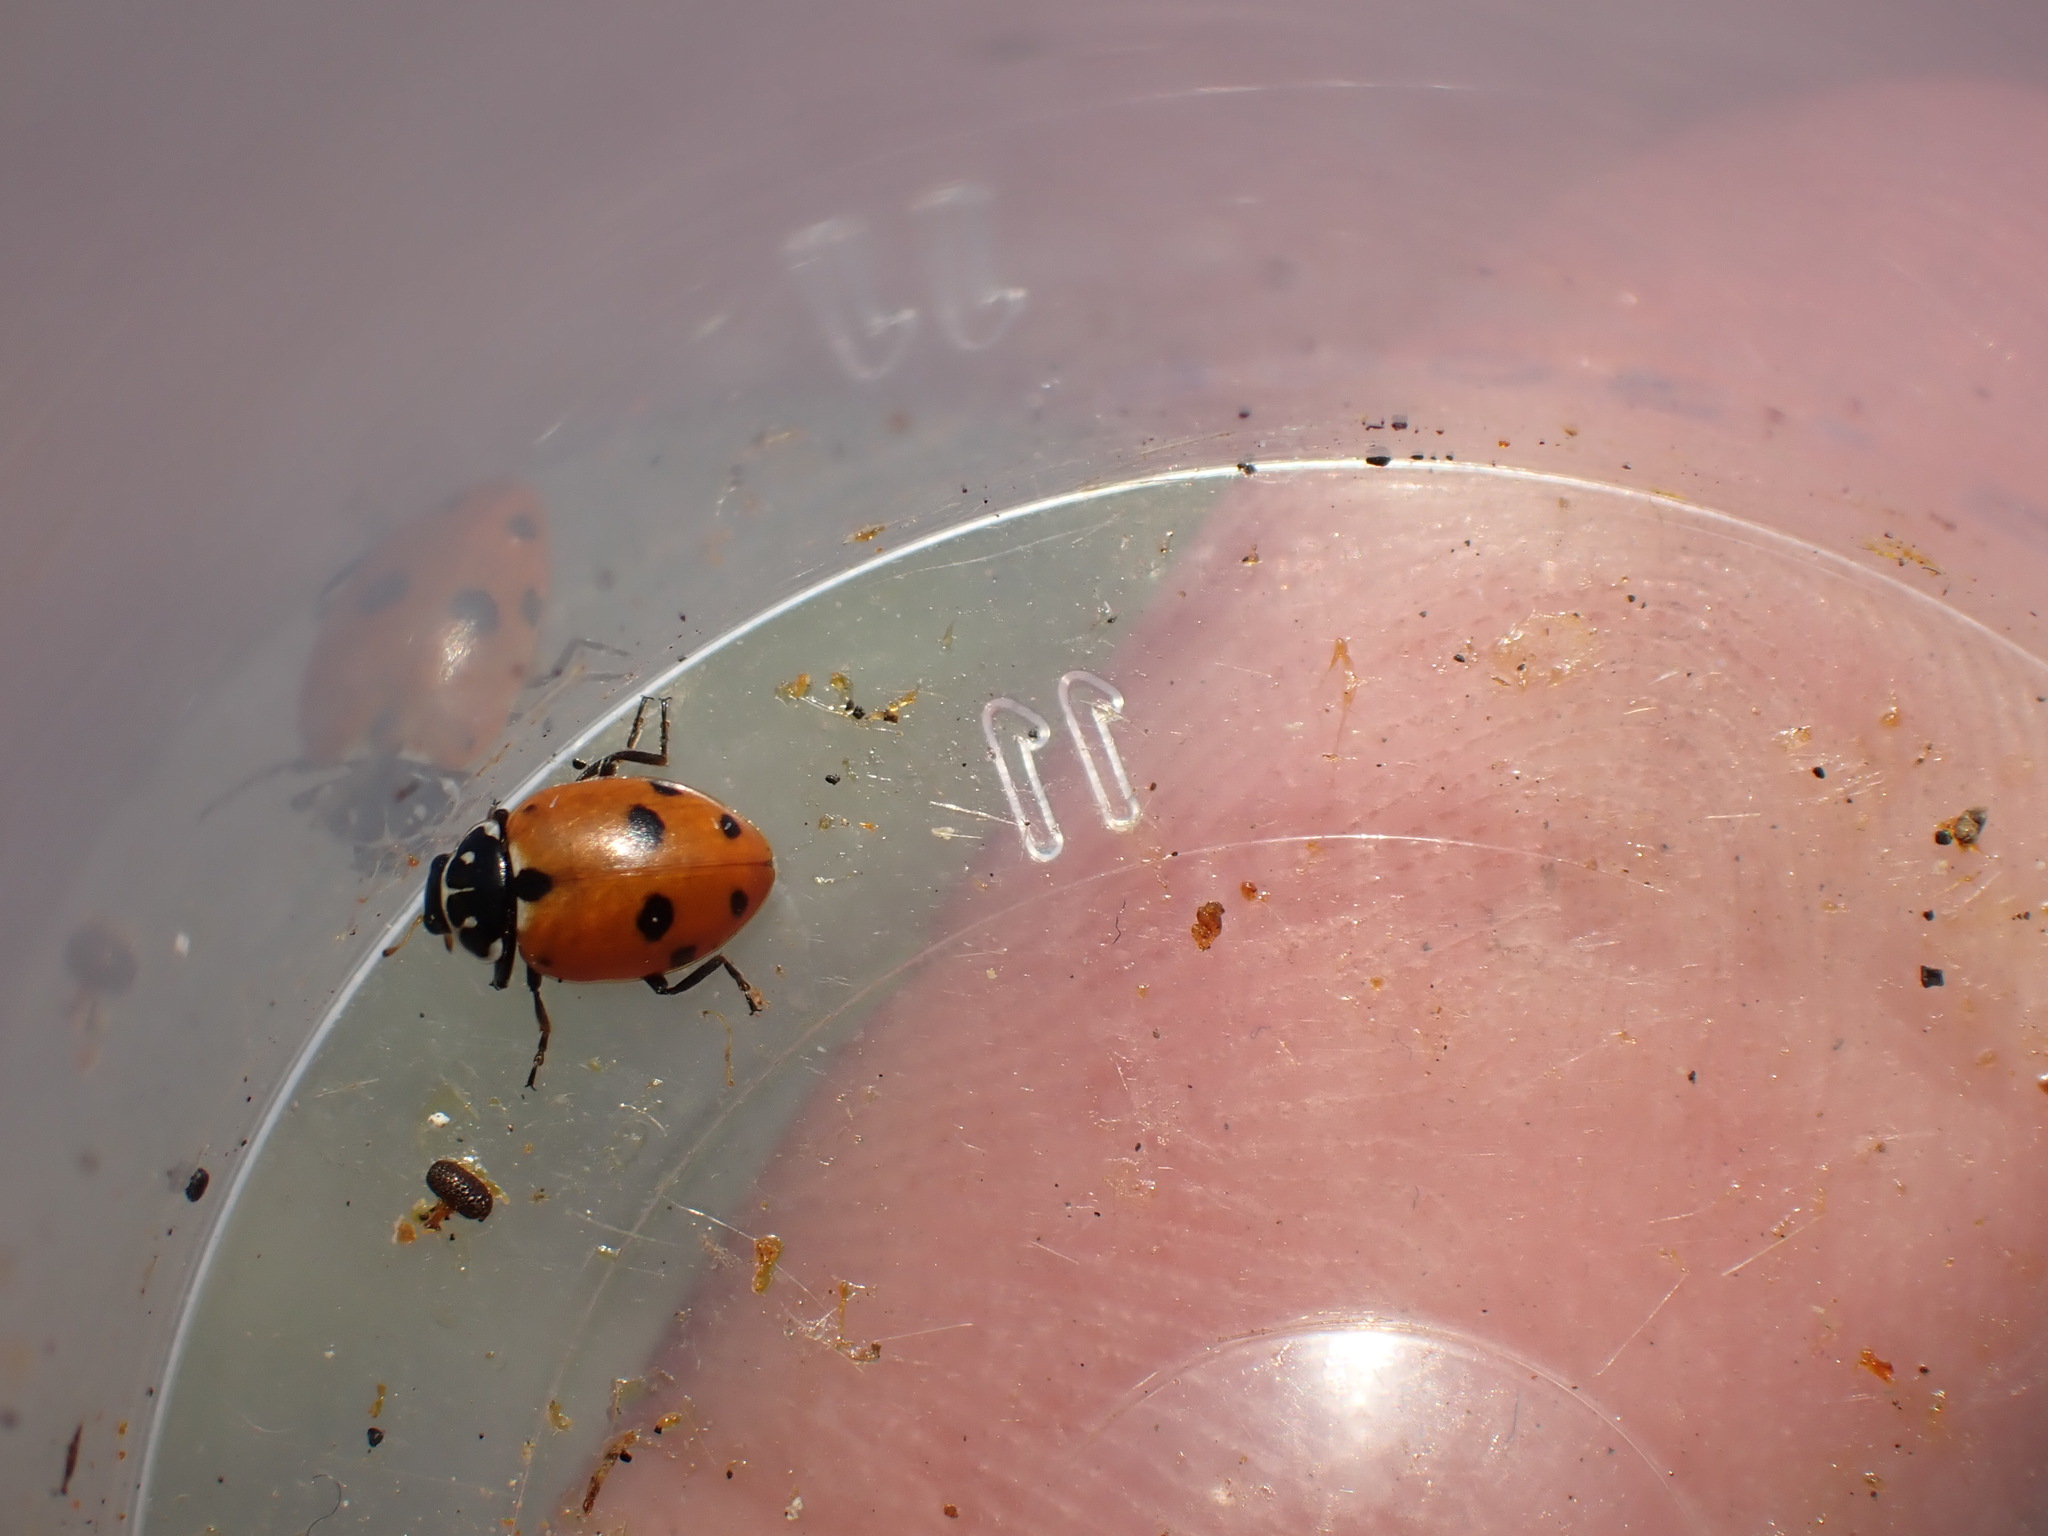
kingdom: Animalia
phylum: Arthropoda
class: Insecta
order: Coleoptera
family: Coccinellidae
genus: Hippodamia
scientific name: Hippodamia variegata
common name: Ladybird beetle
